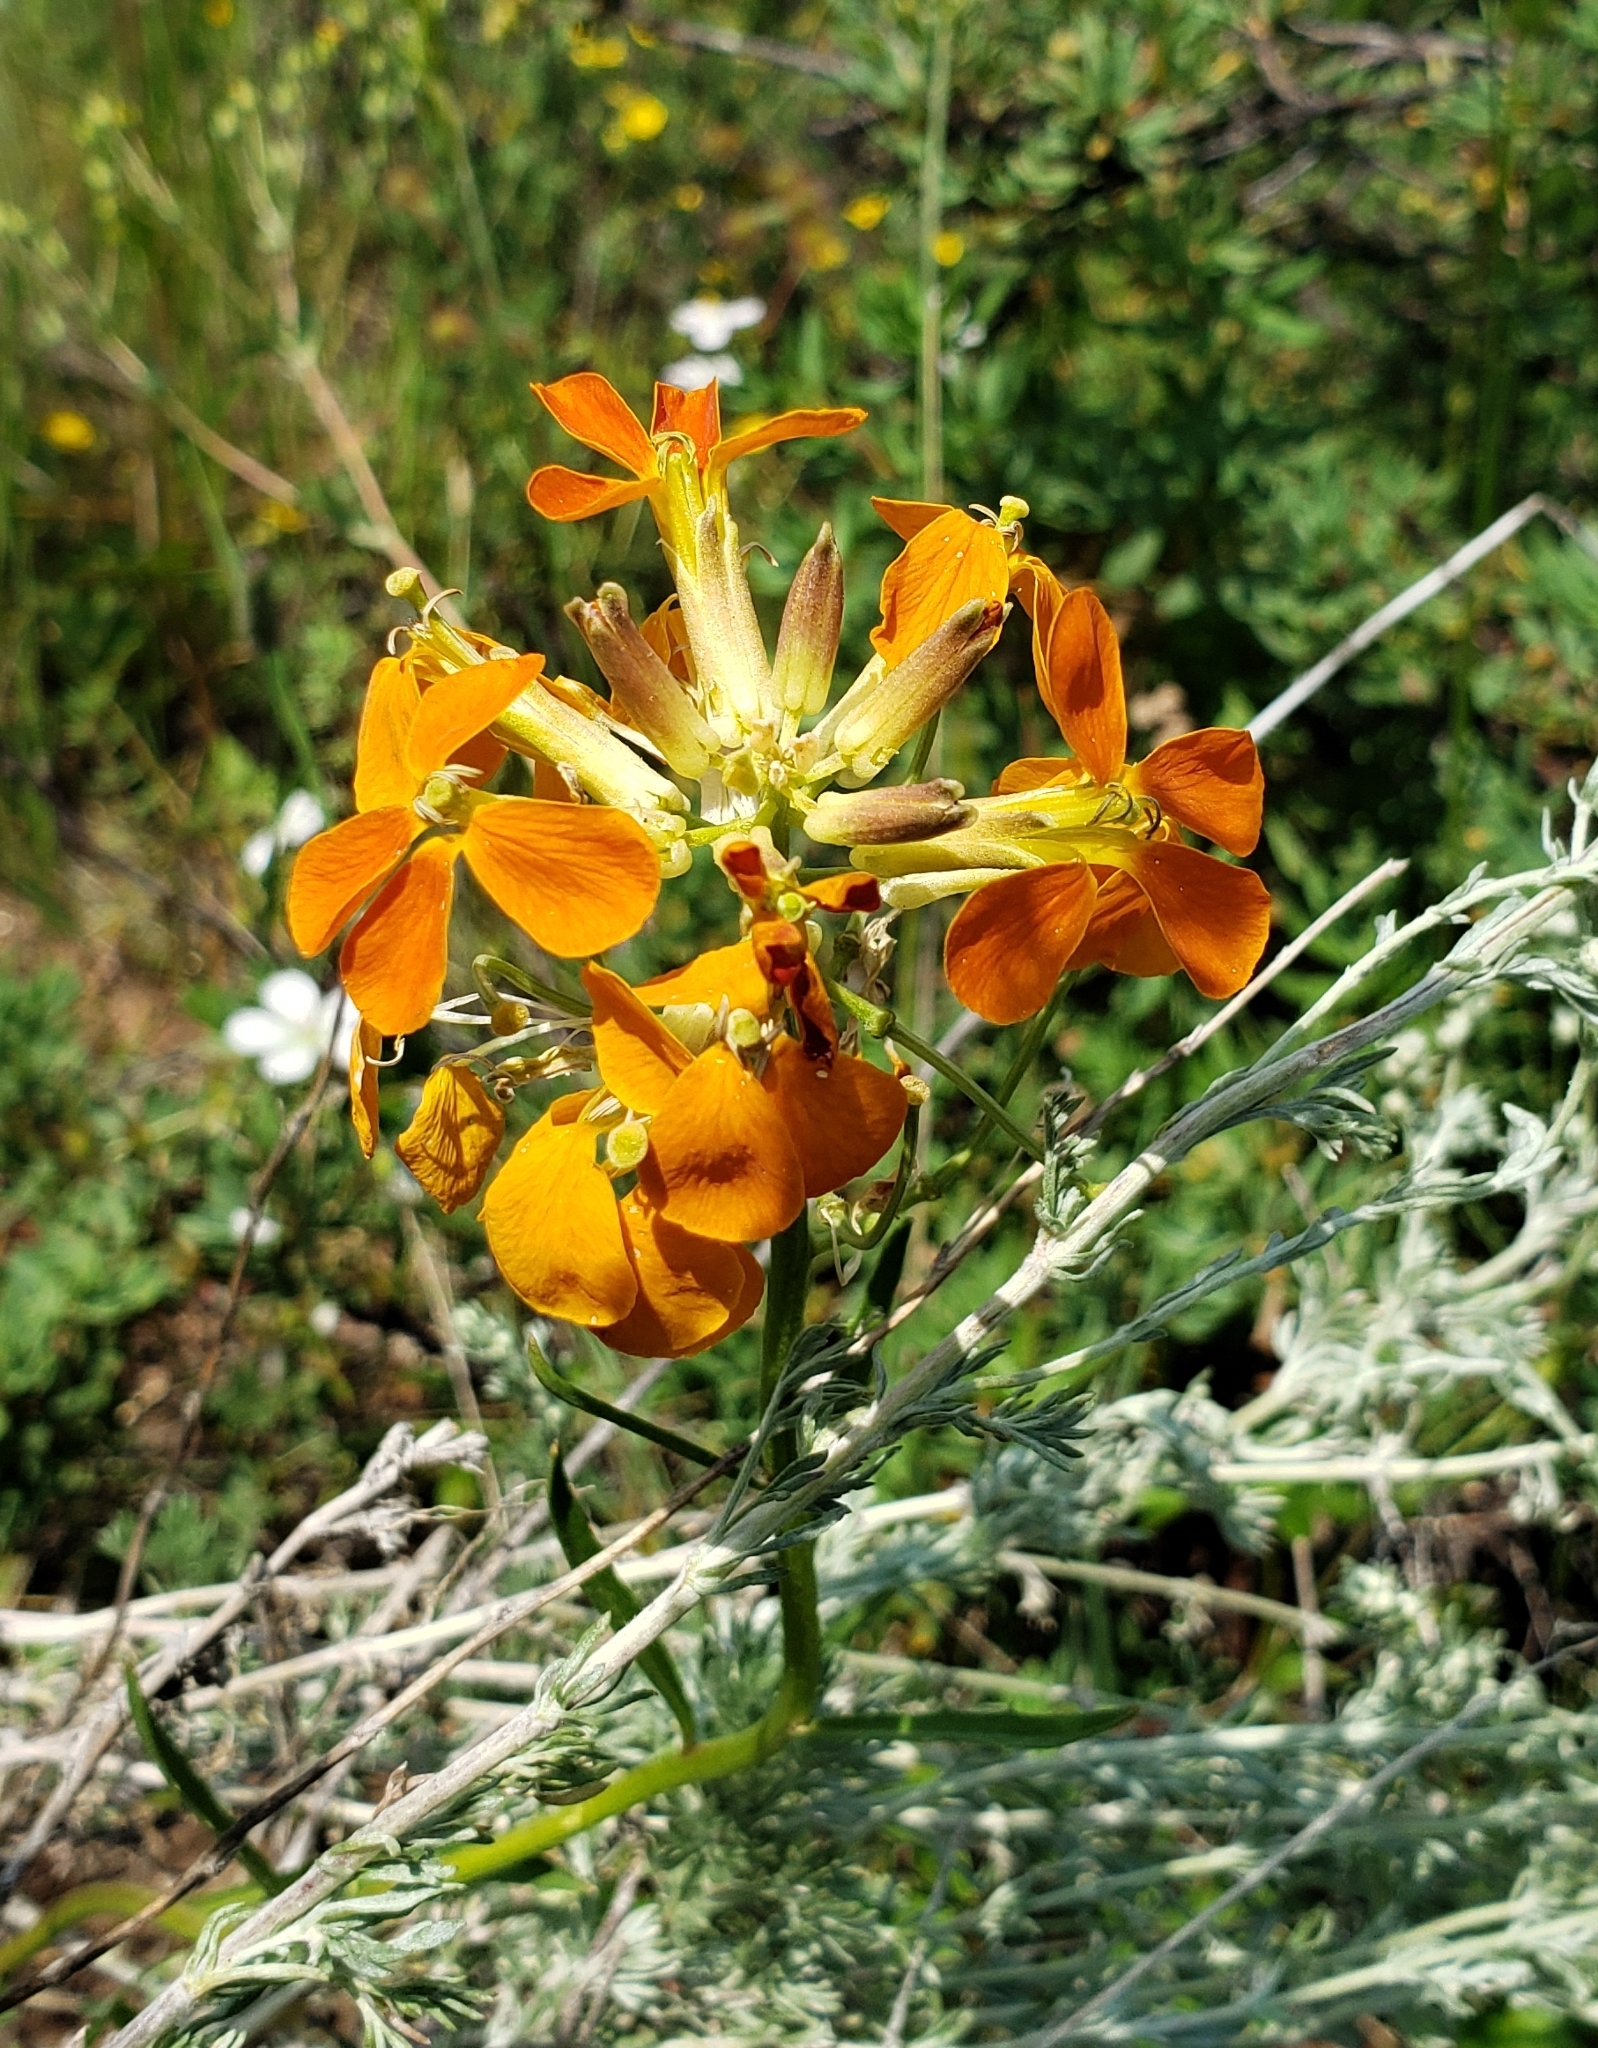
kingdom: Plantae
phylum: Tracheophyta
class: Magnoliopsida
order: Brassicales
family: Brassicaceae
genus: Erysimum
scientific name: Erysimum capitatum
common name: Western wallflower
